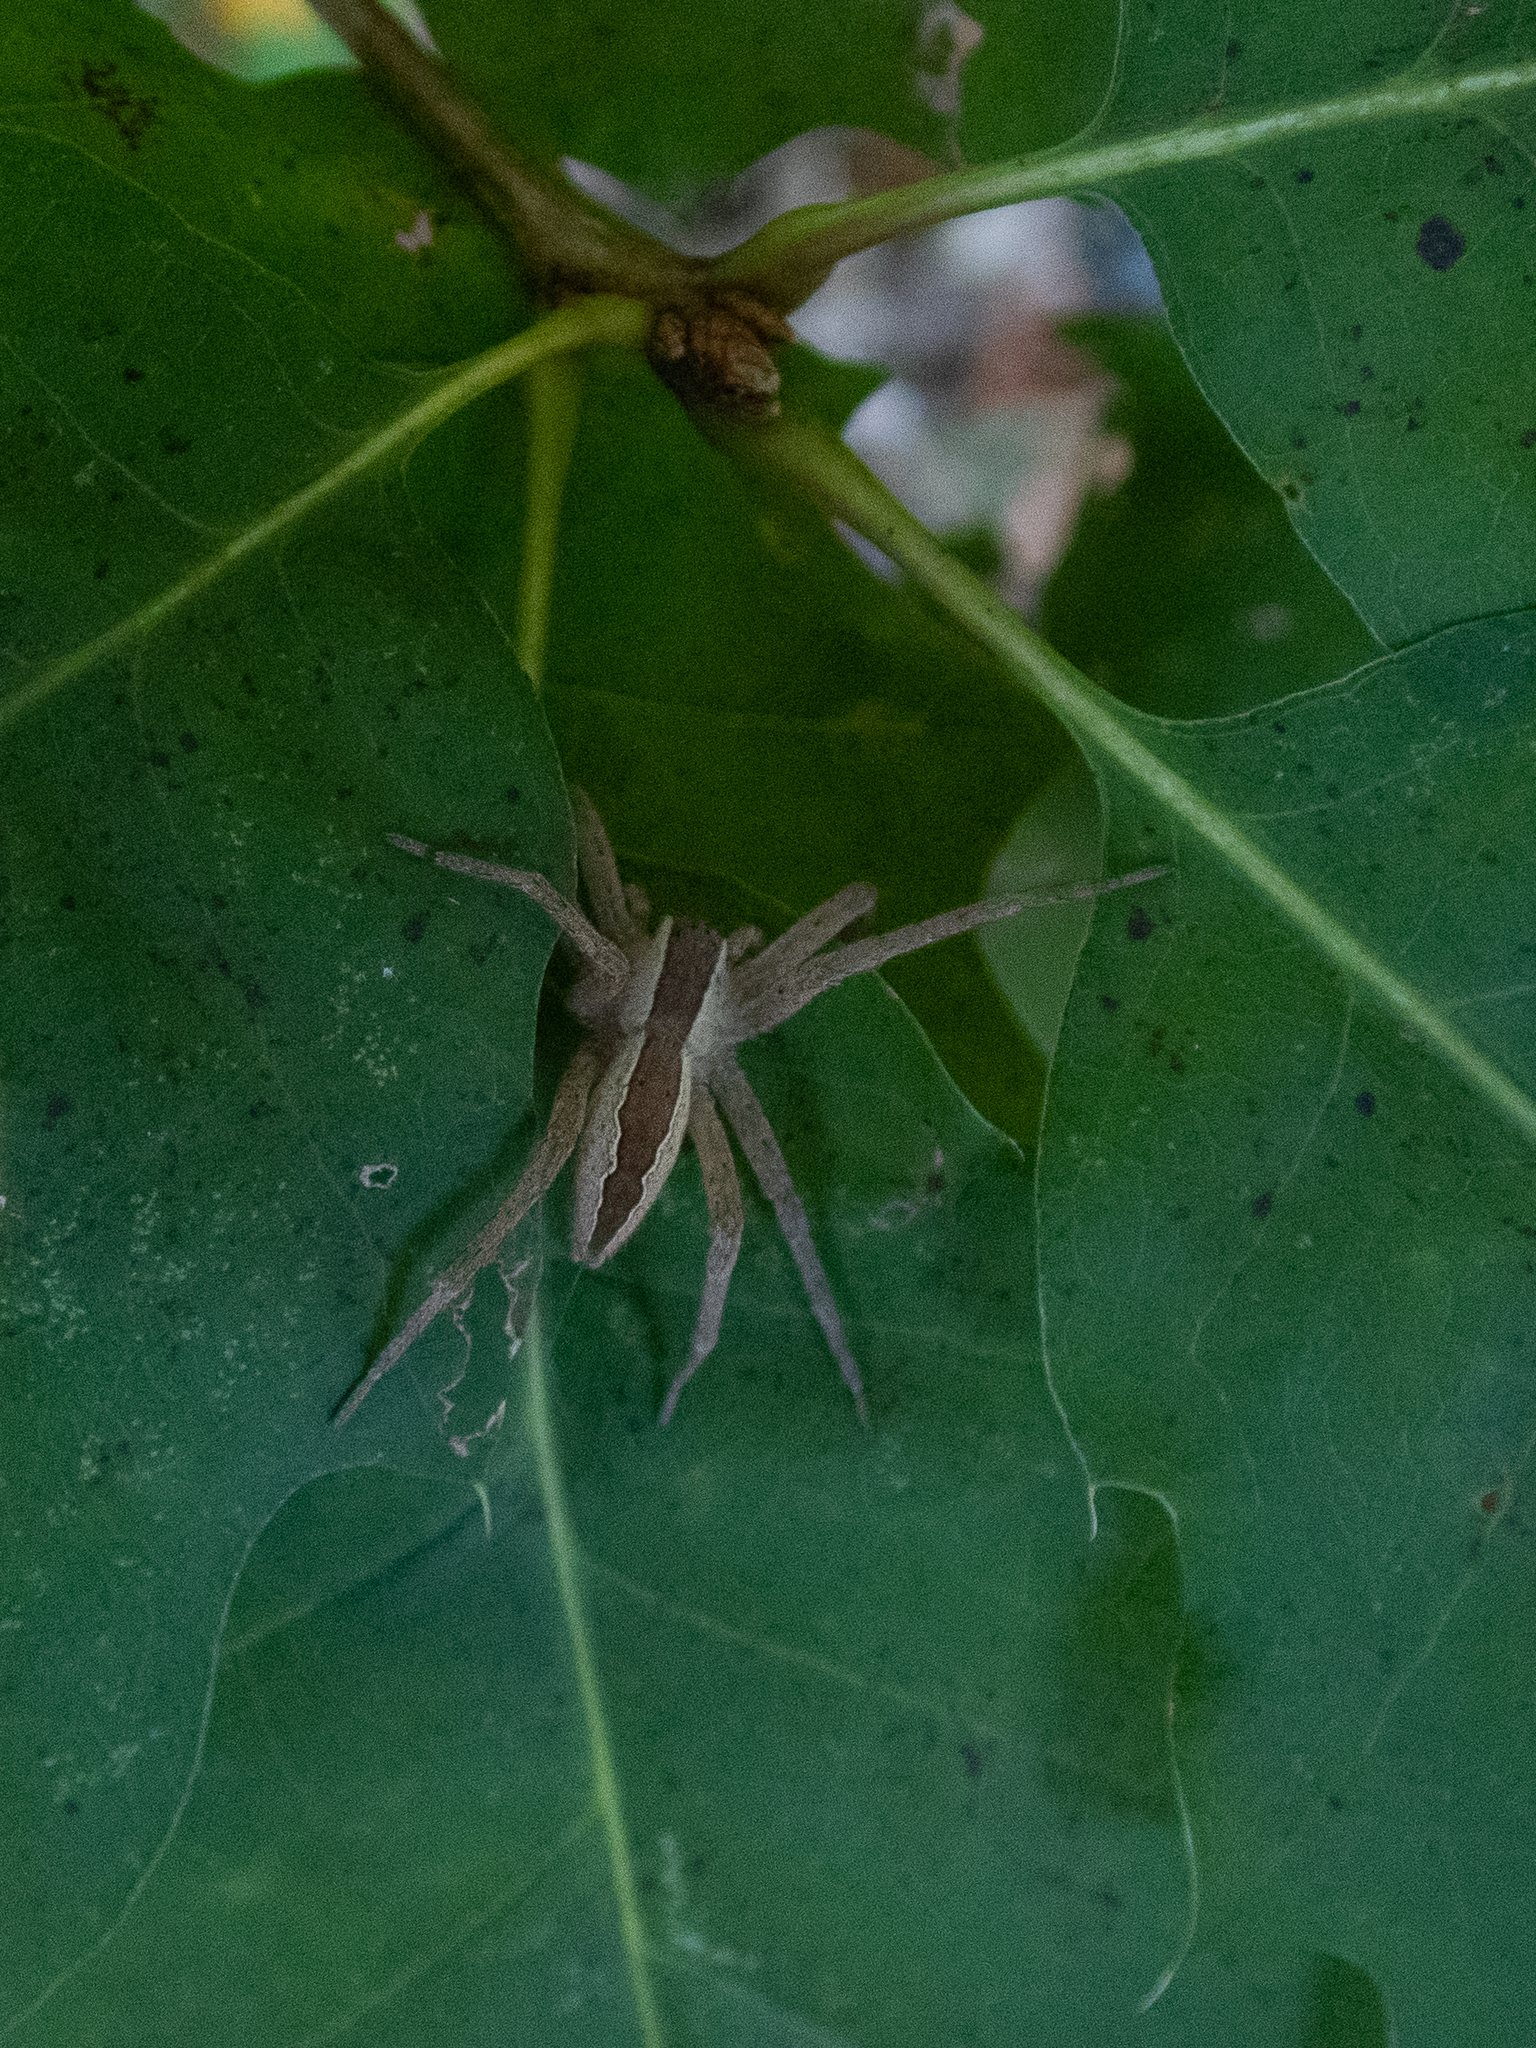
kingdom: Animalia
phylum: Arthropoda
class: Arachnida
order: Araneae
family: Pisauridae
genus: Pisaurina
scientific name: Pisaurina mira
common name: American nursery web spider
